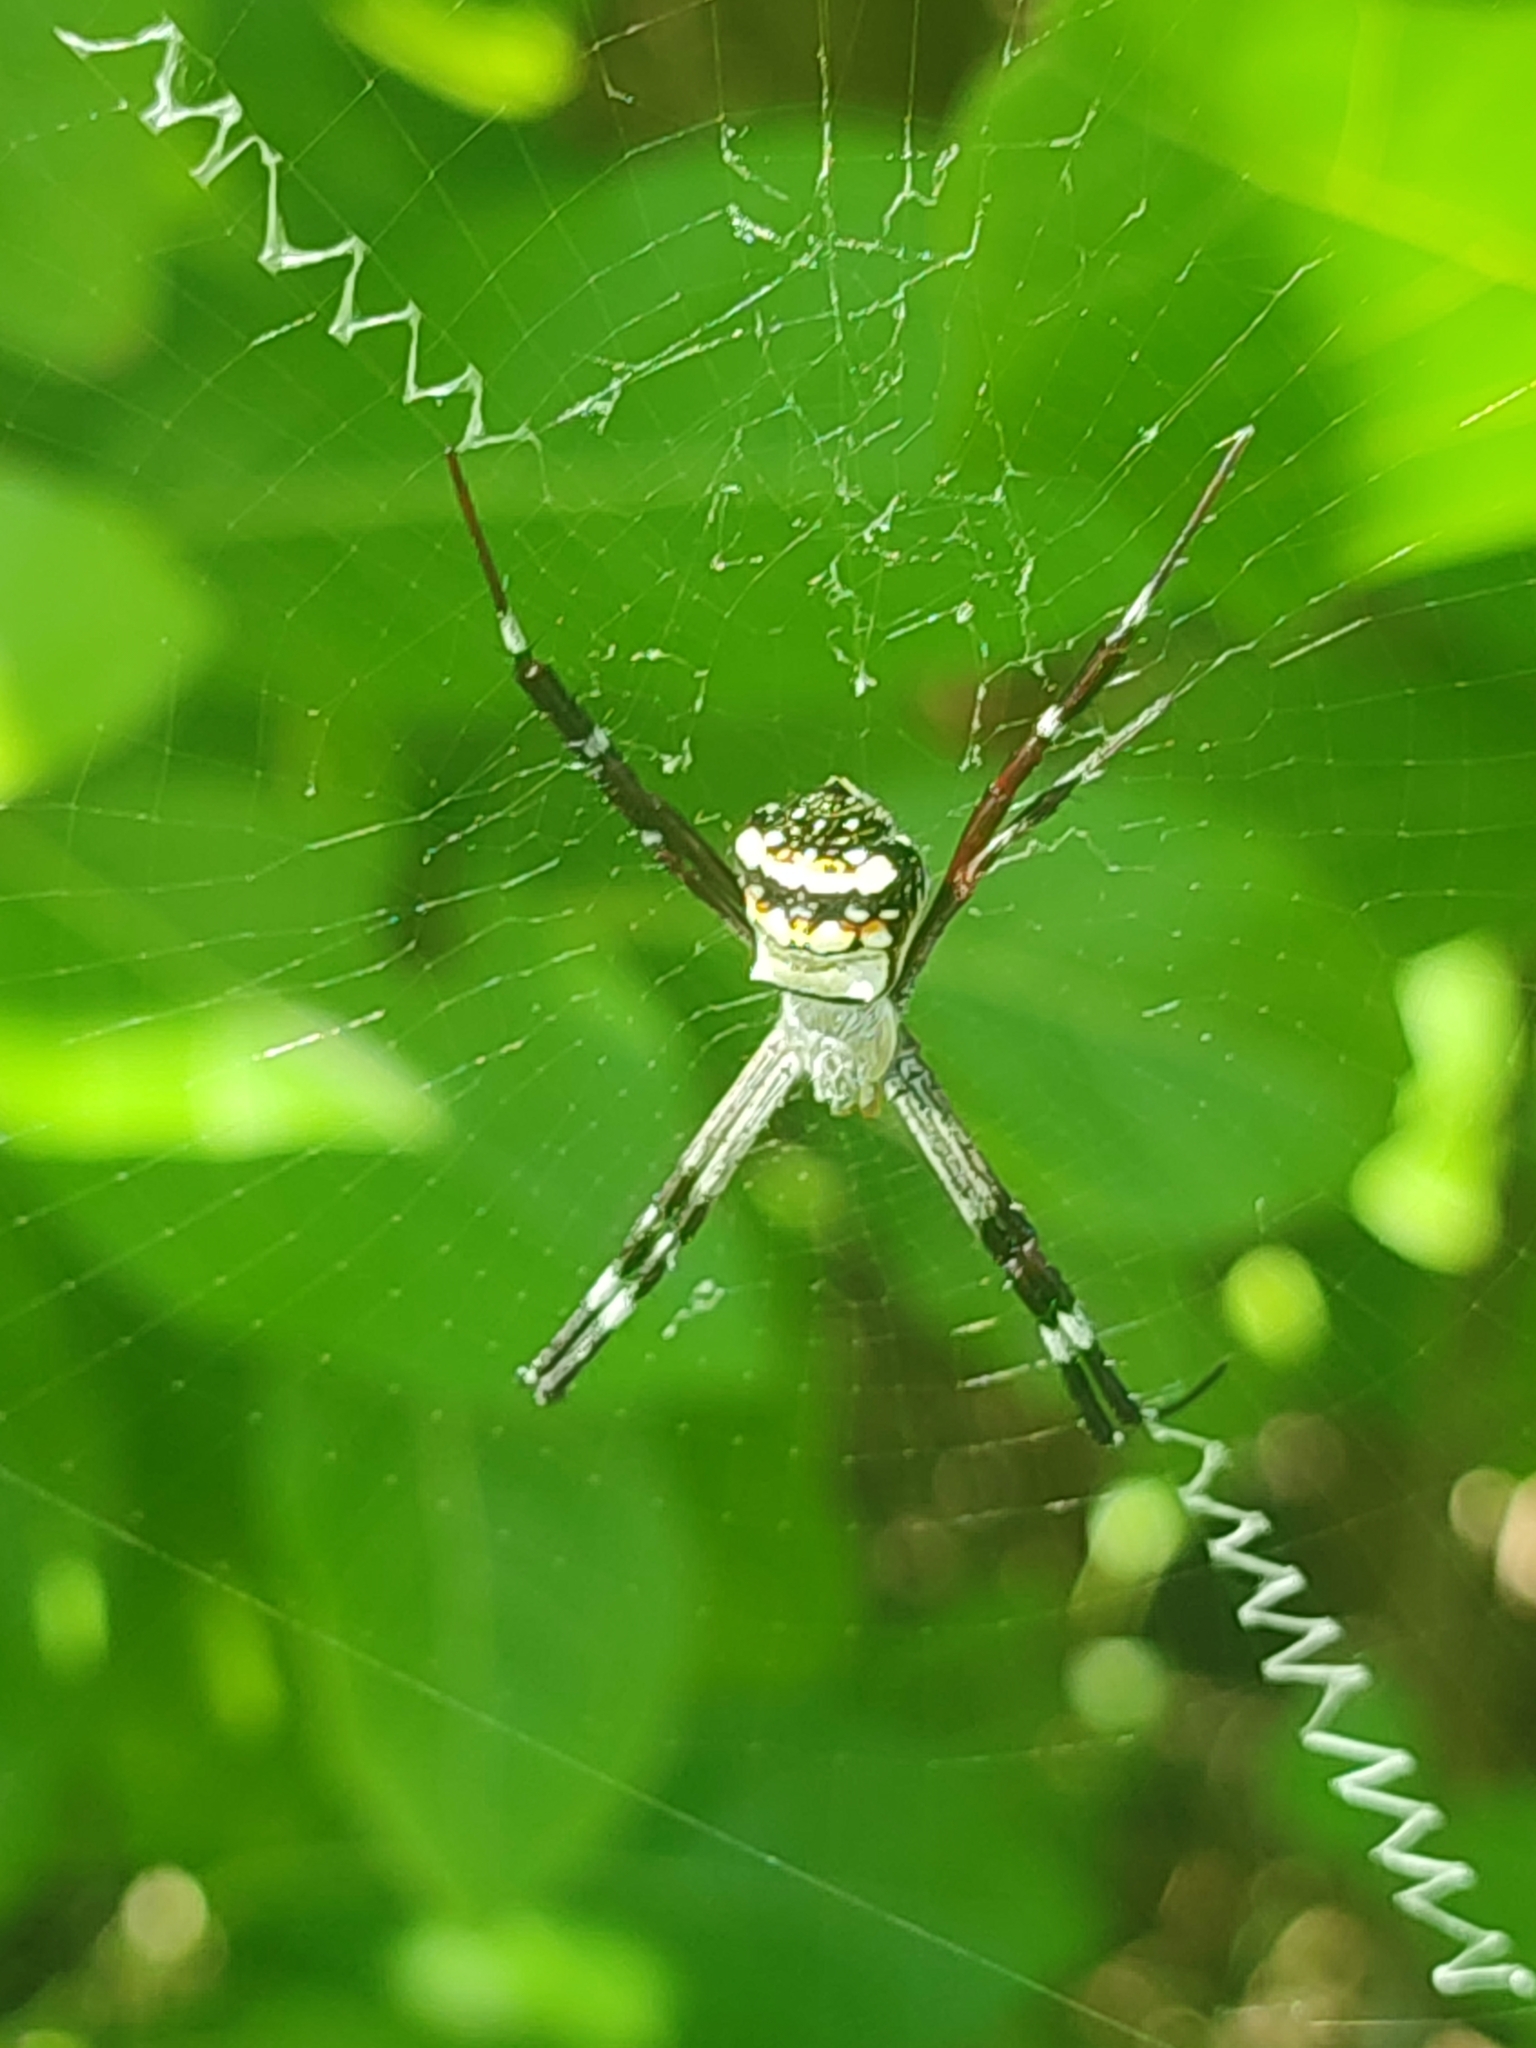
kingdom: Animalia
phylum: Arthropoda
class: Arachnida
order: Araneae
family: Araneidae
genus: Argiope
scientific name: Argiope anasuja
